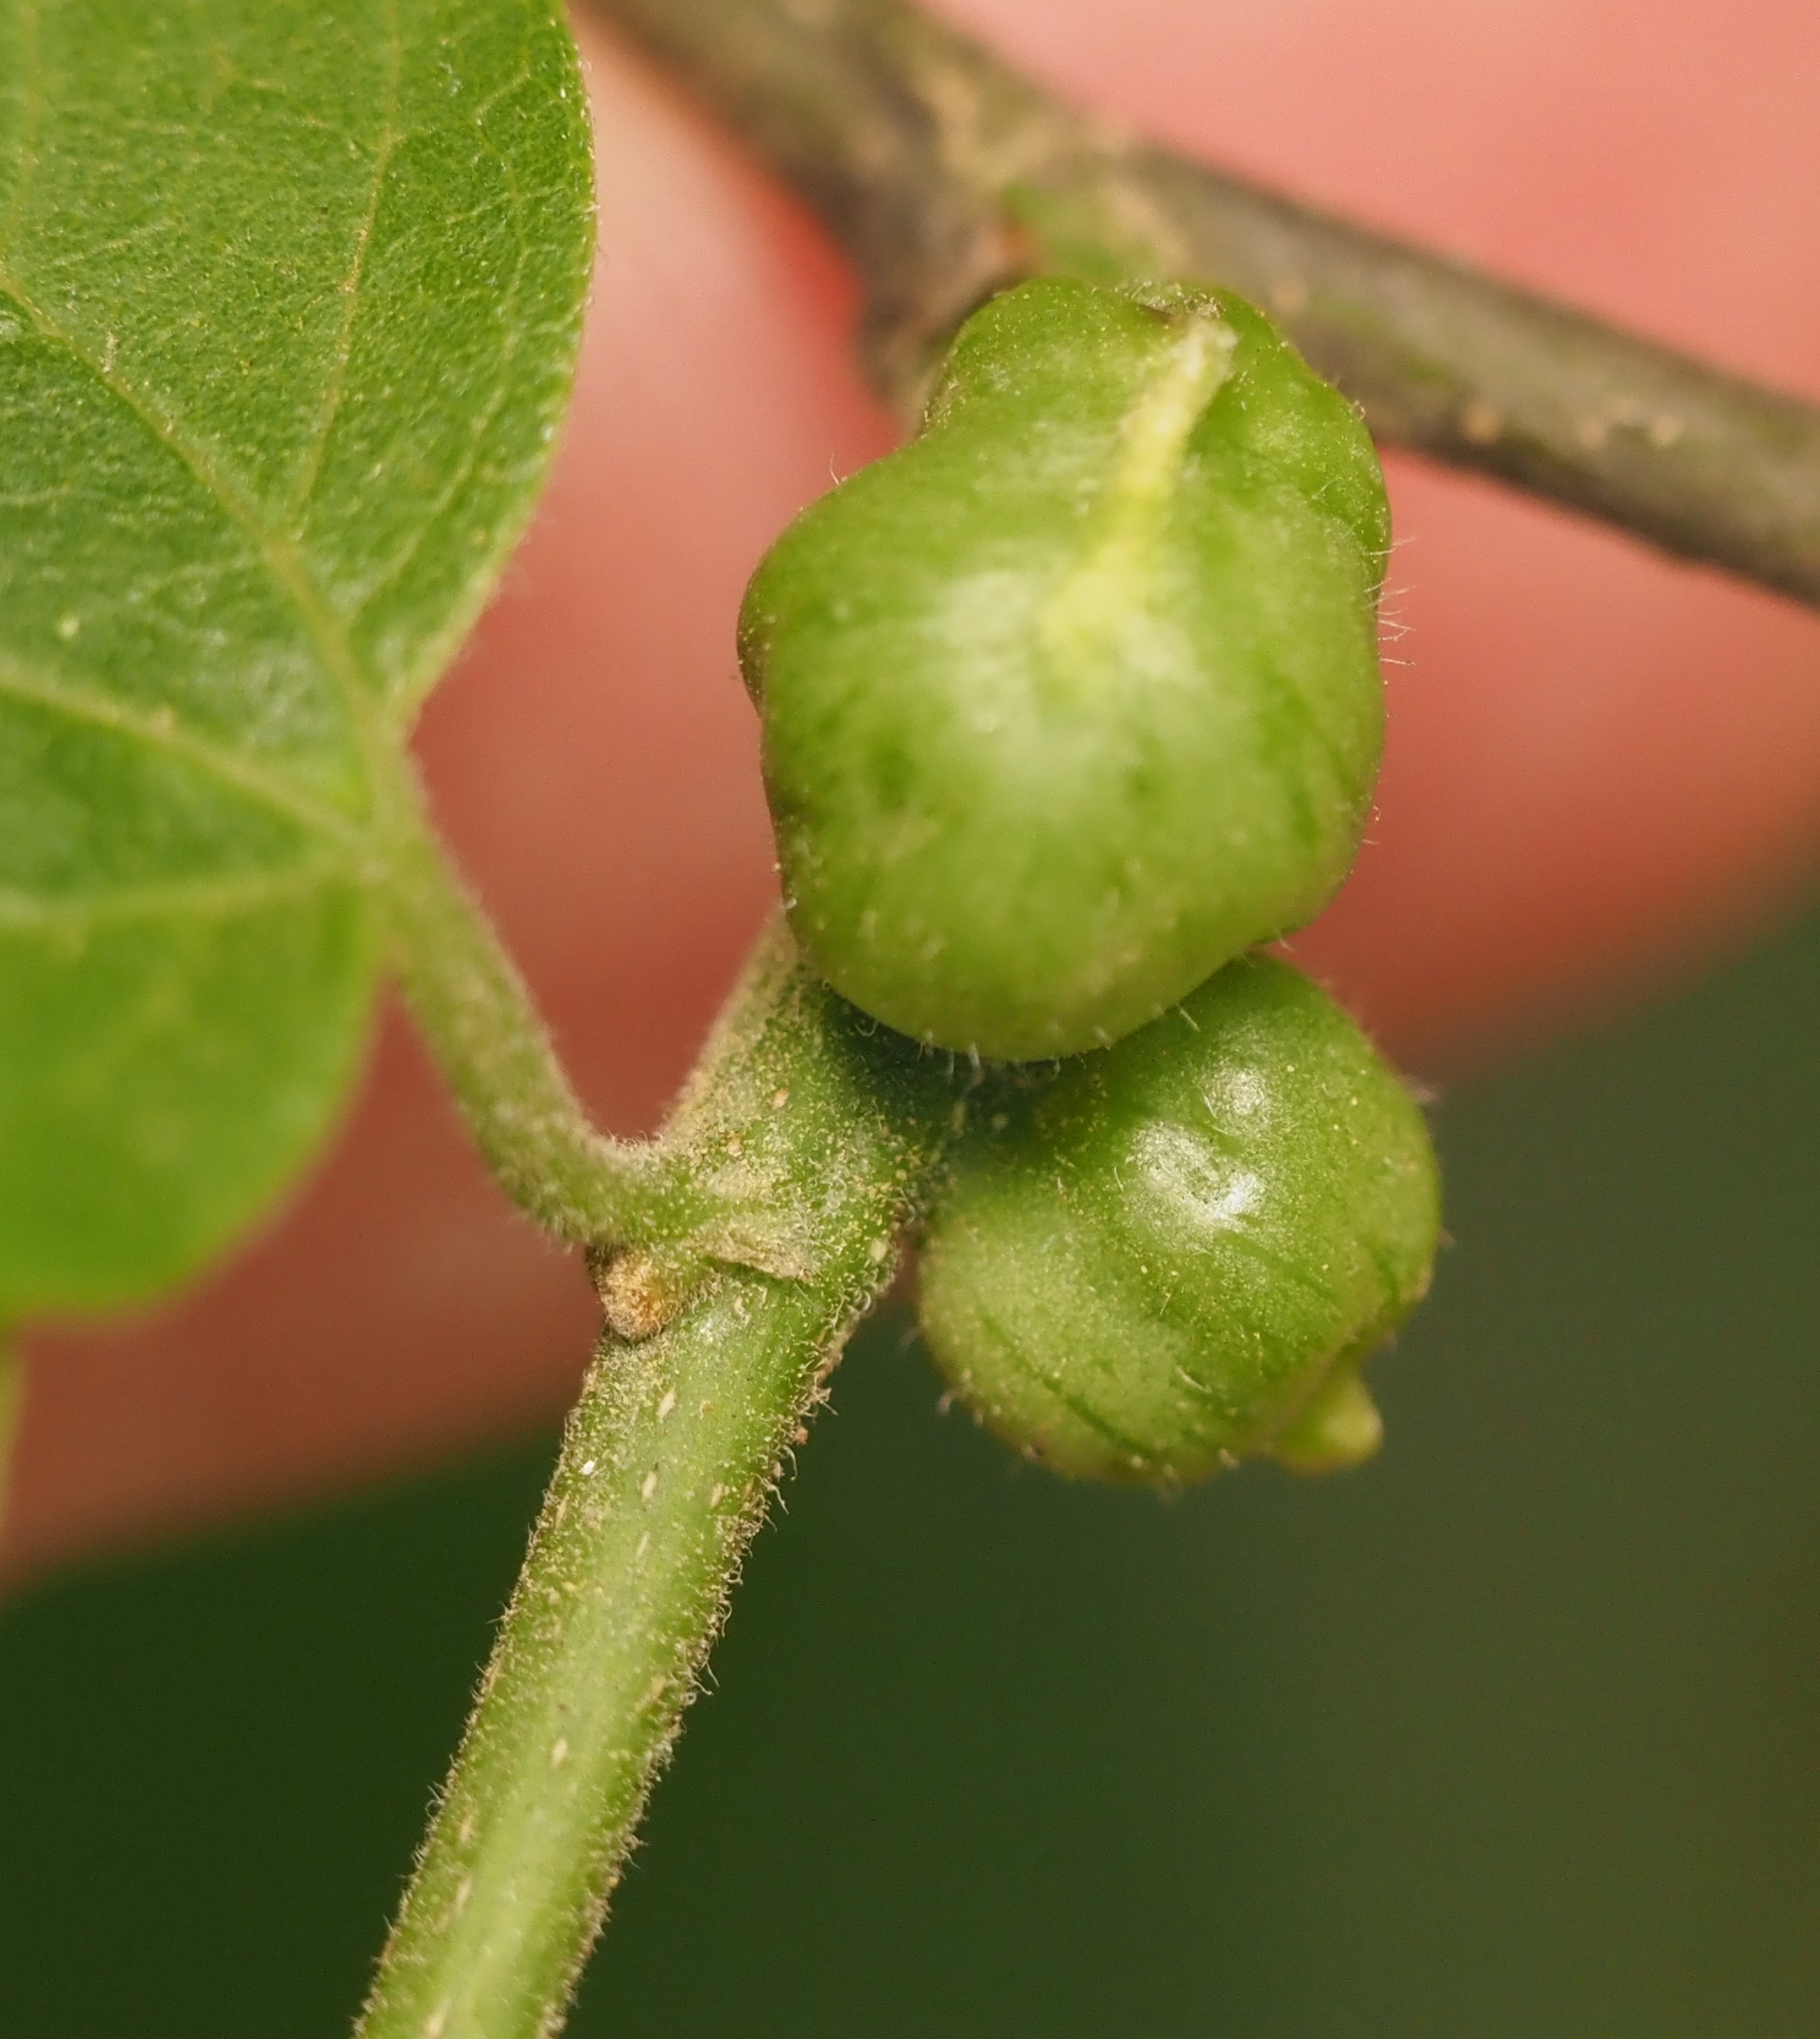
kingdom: Animalia
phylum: Arthropoda
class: Insecta
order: Diptera
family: Cecidomyiidae
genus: Celticecis
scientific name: Celticecis connata
